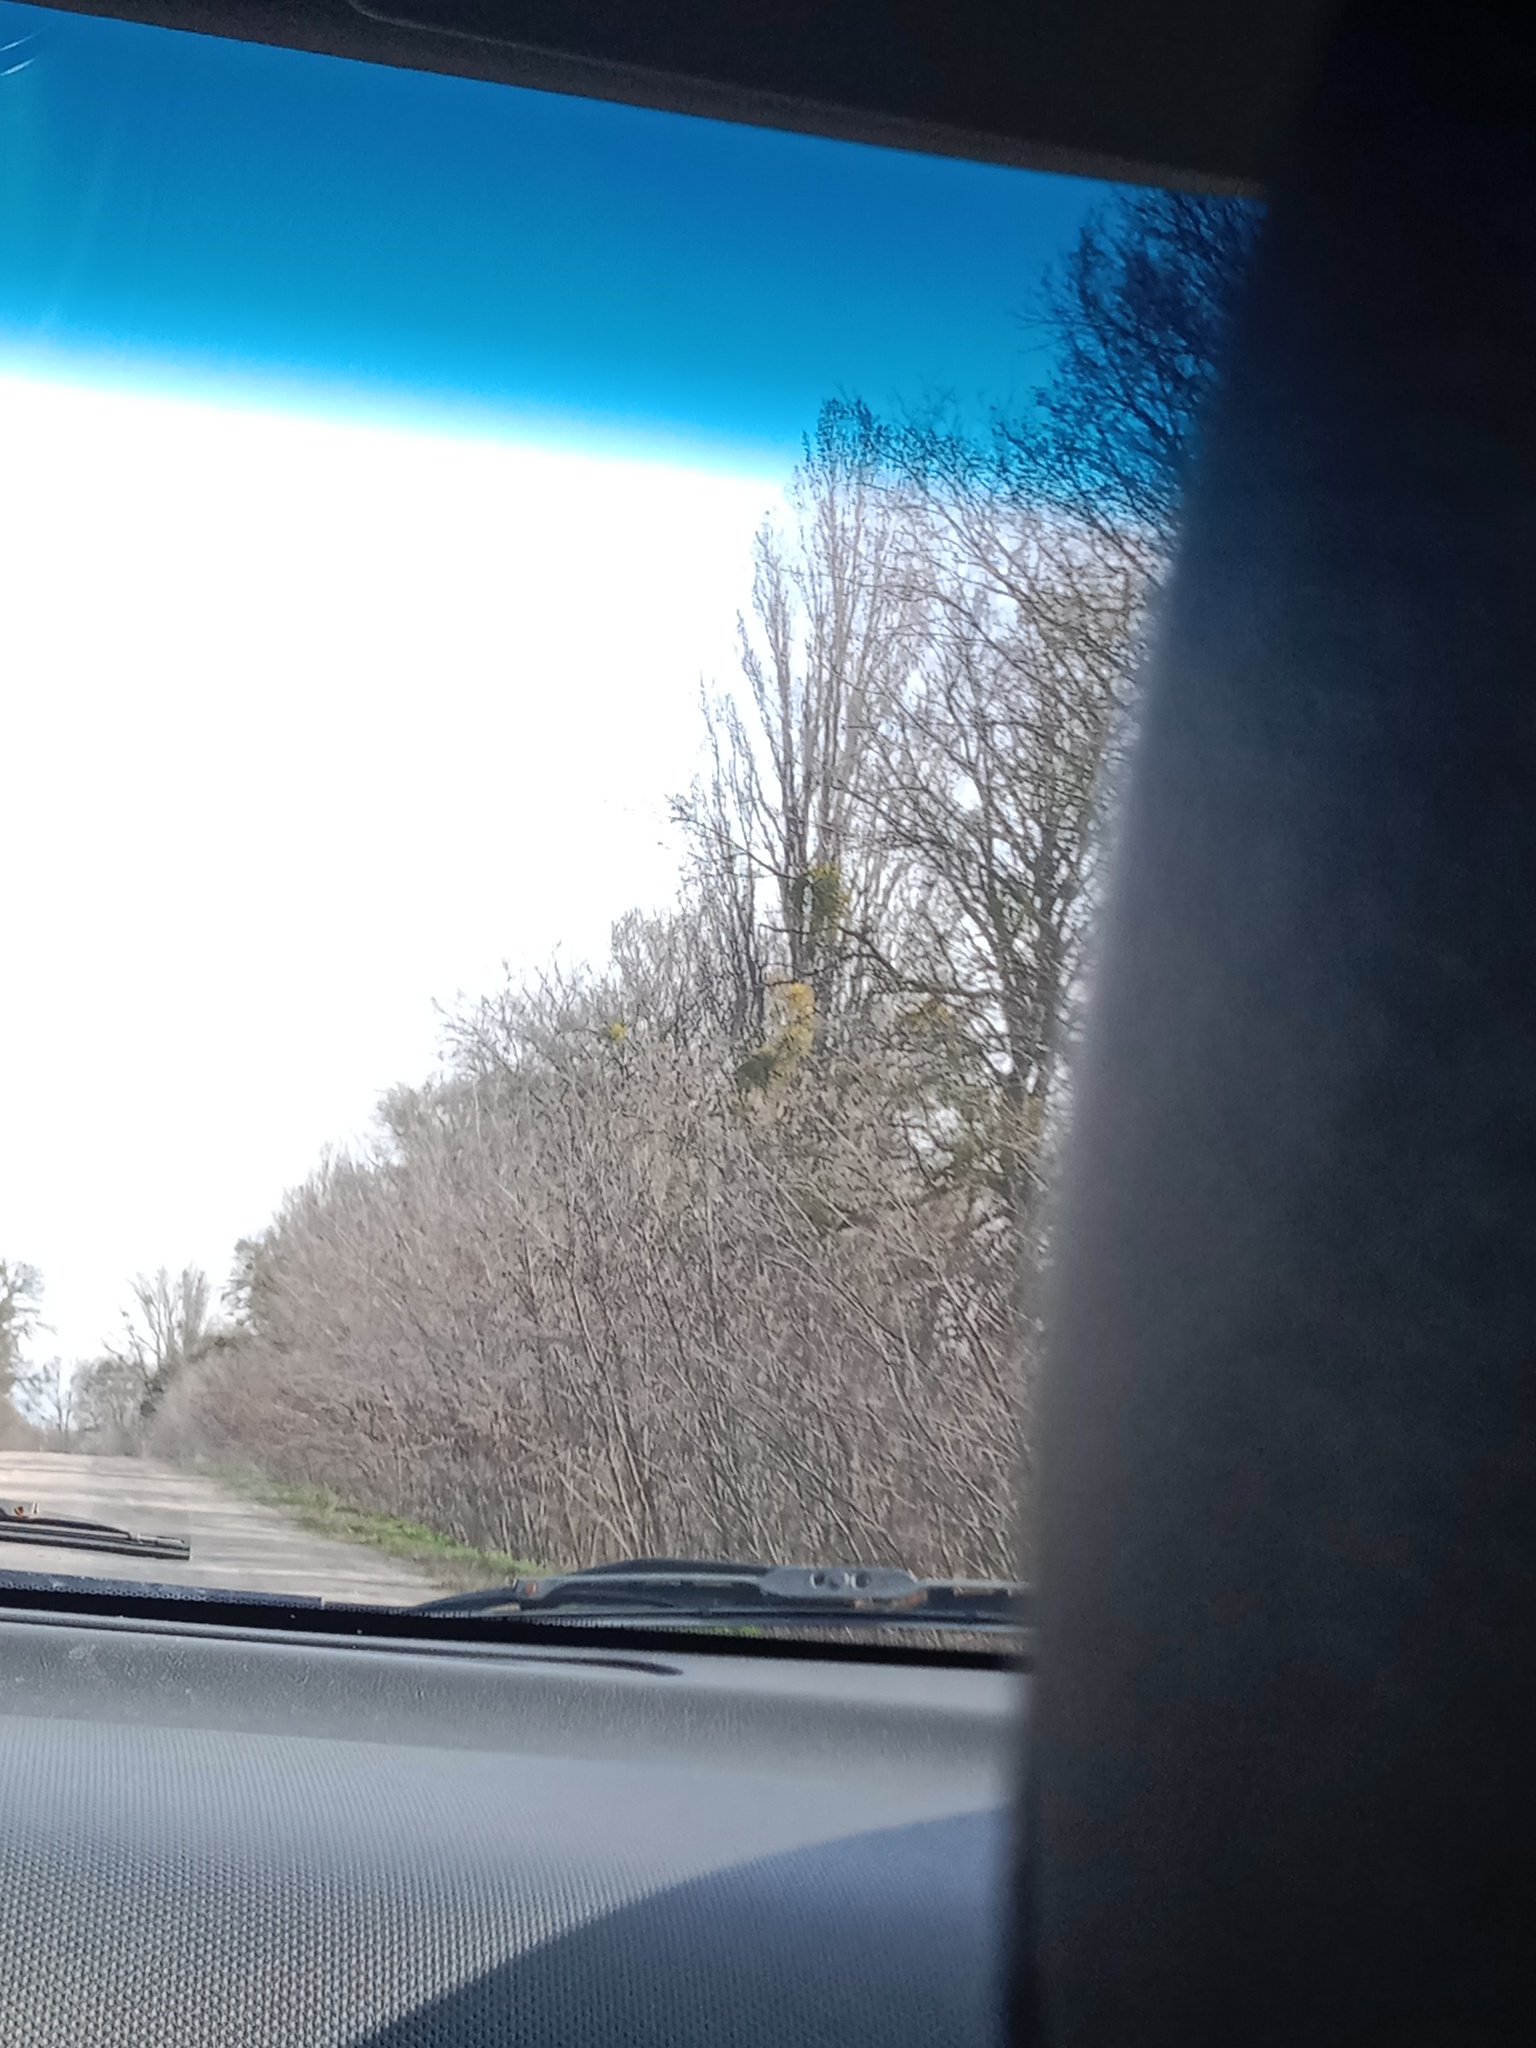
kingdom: Plantae
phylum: Tracheophyta
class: Magnoliopsida
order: Santalales
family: Viscaceae
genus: Viscum
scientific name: Viscum album
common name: Mistletoe
